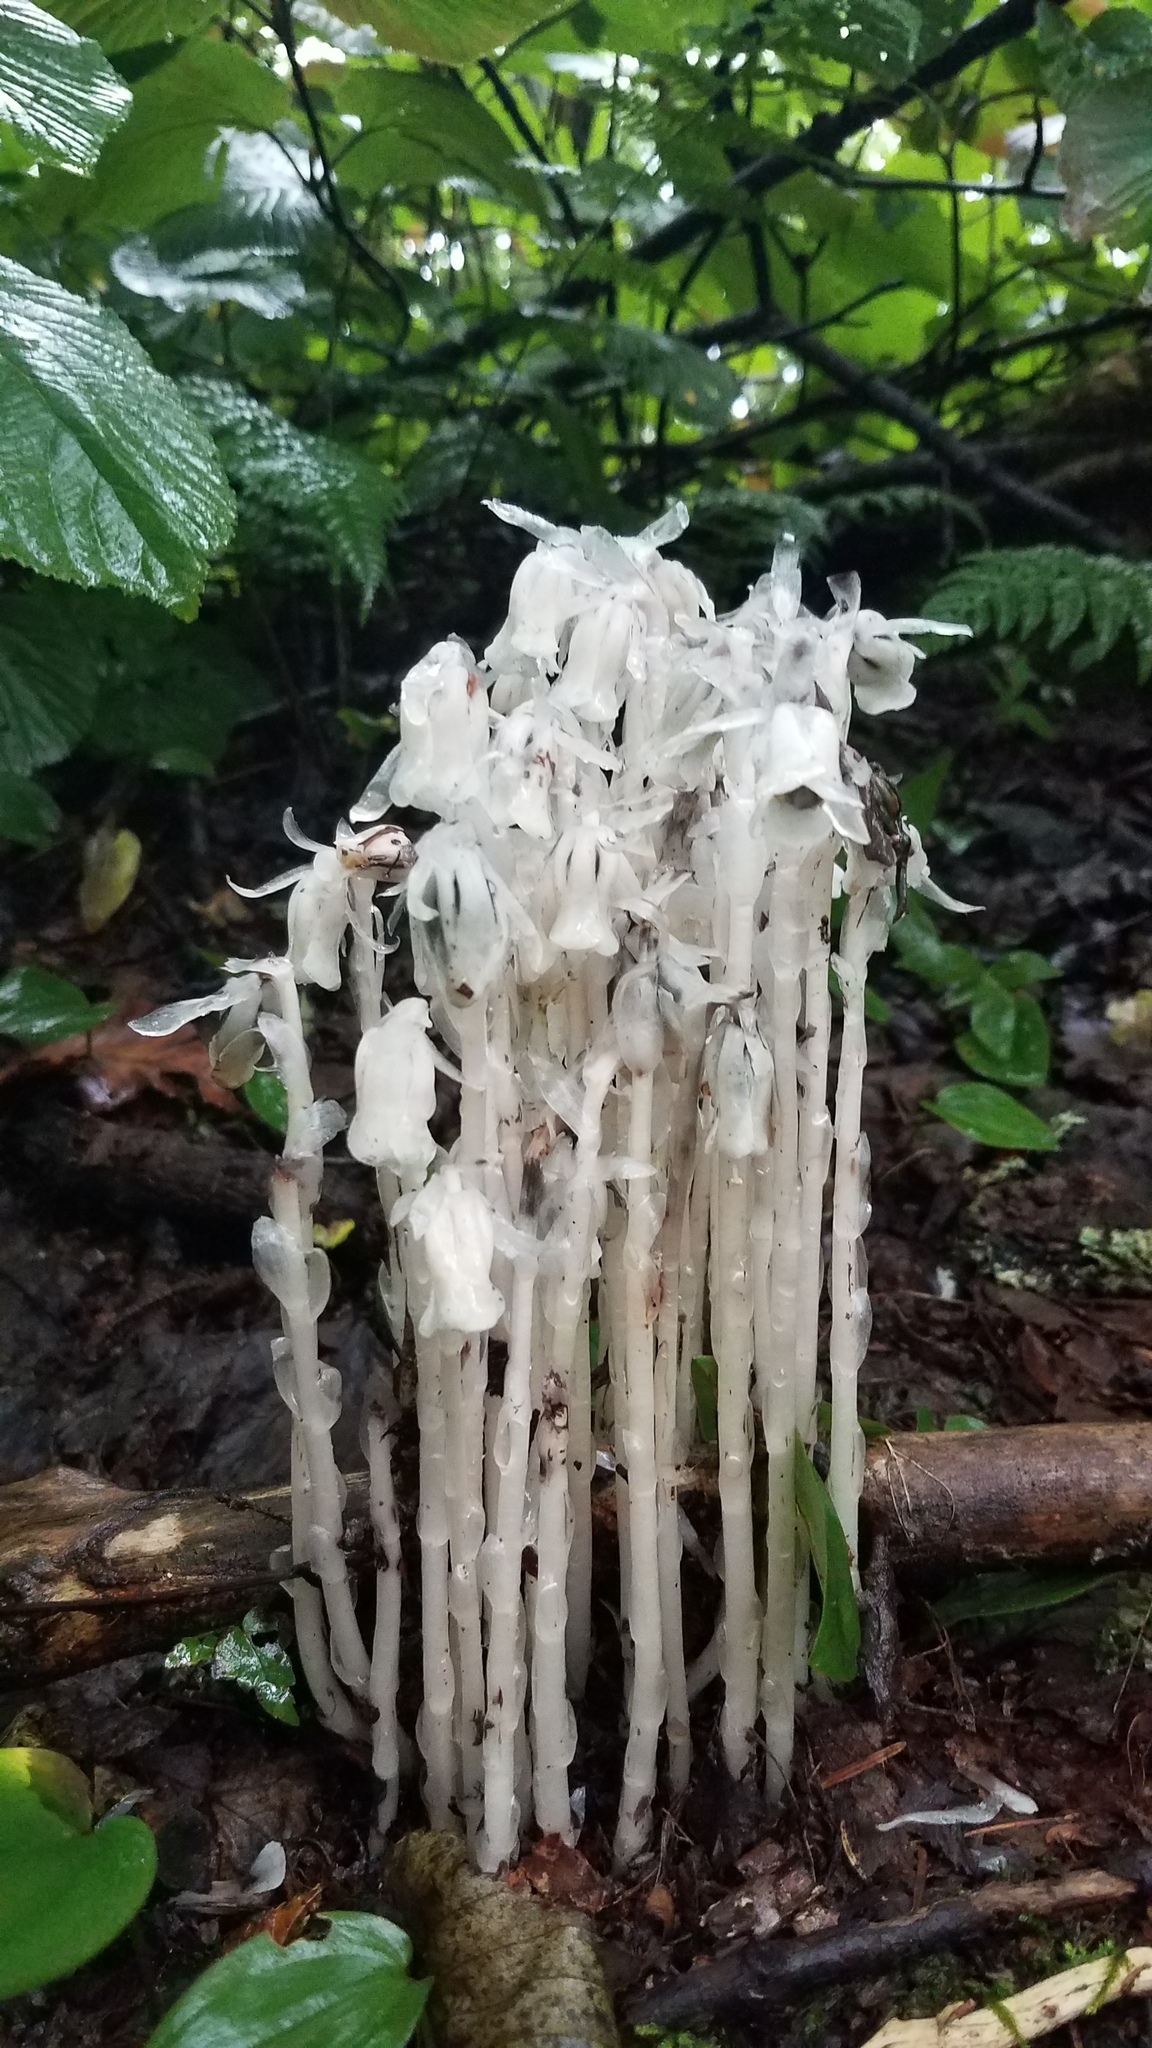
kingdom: Plantae
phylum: Tracheophyta
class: Magnoliopsida
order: Ericales
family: Ericaceae
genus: Monotropa
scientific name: Monotropa uniflora
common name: Convulsion root
